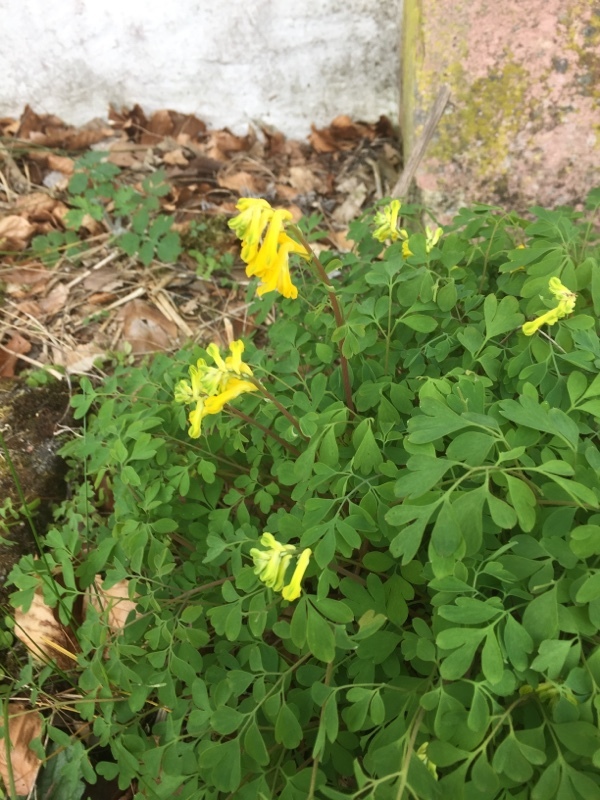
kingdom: Plantae
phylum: Tracheophyta
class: Magnoliopsida
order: Ranunculales
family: Papaveraceae
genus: Pseudofumaria
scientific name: Pseudofumaria lutea
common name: Yellow corydalis
